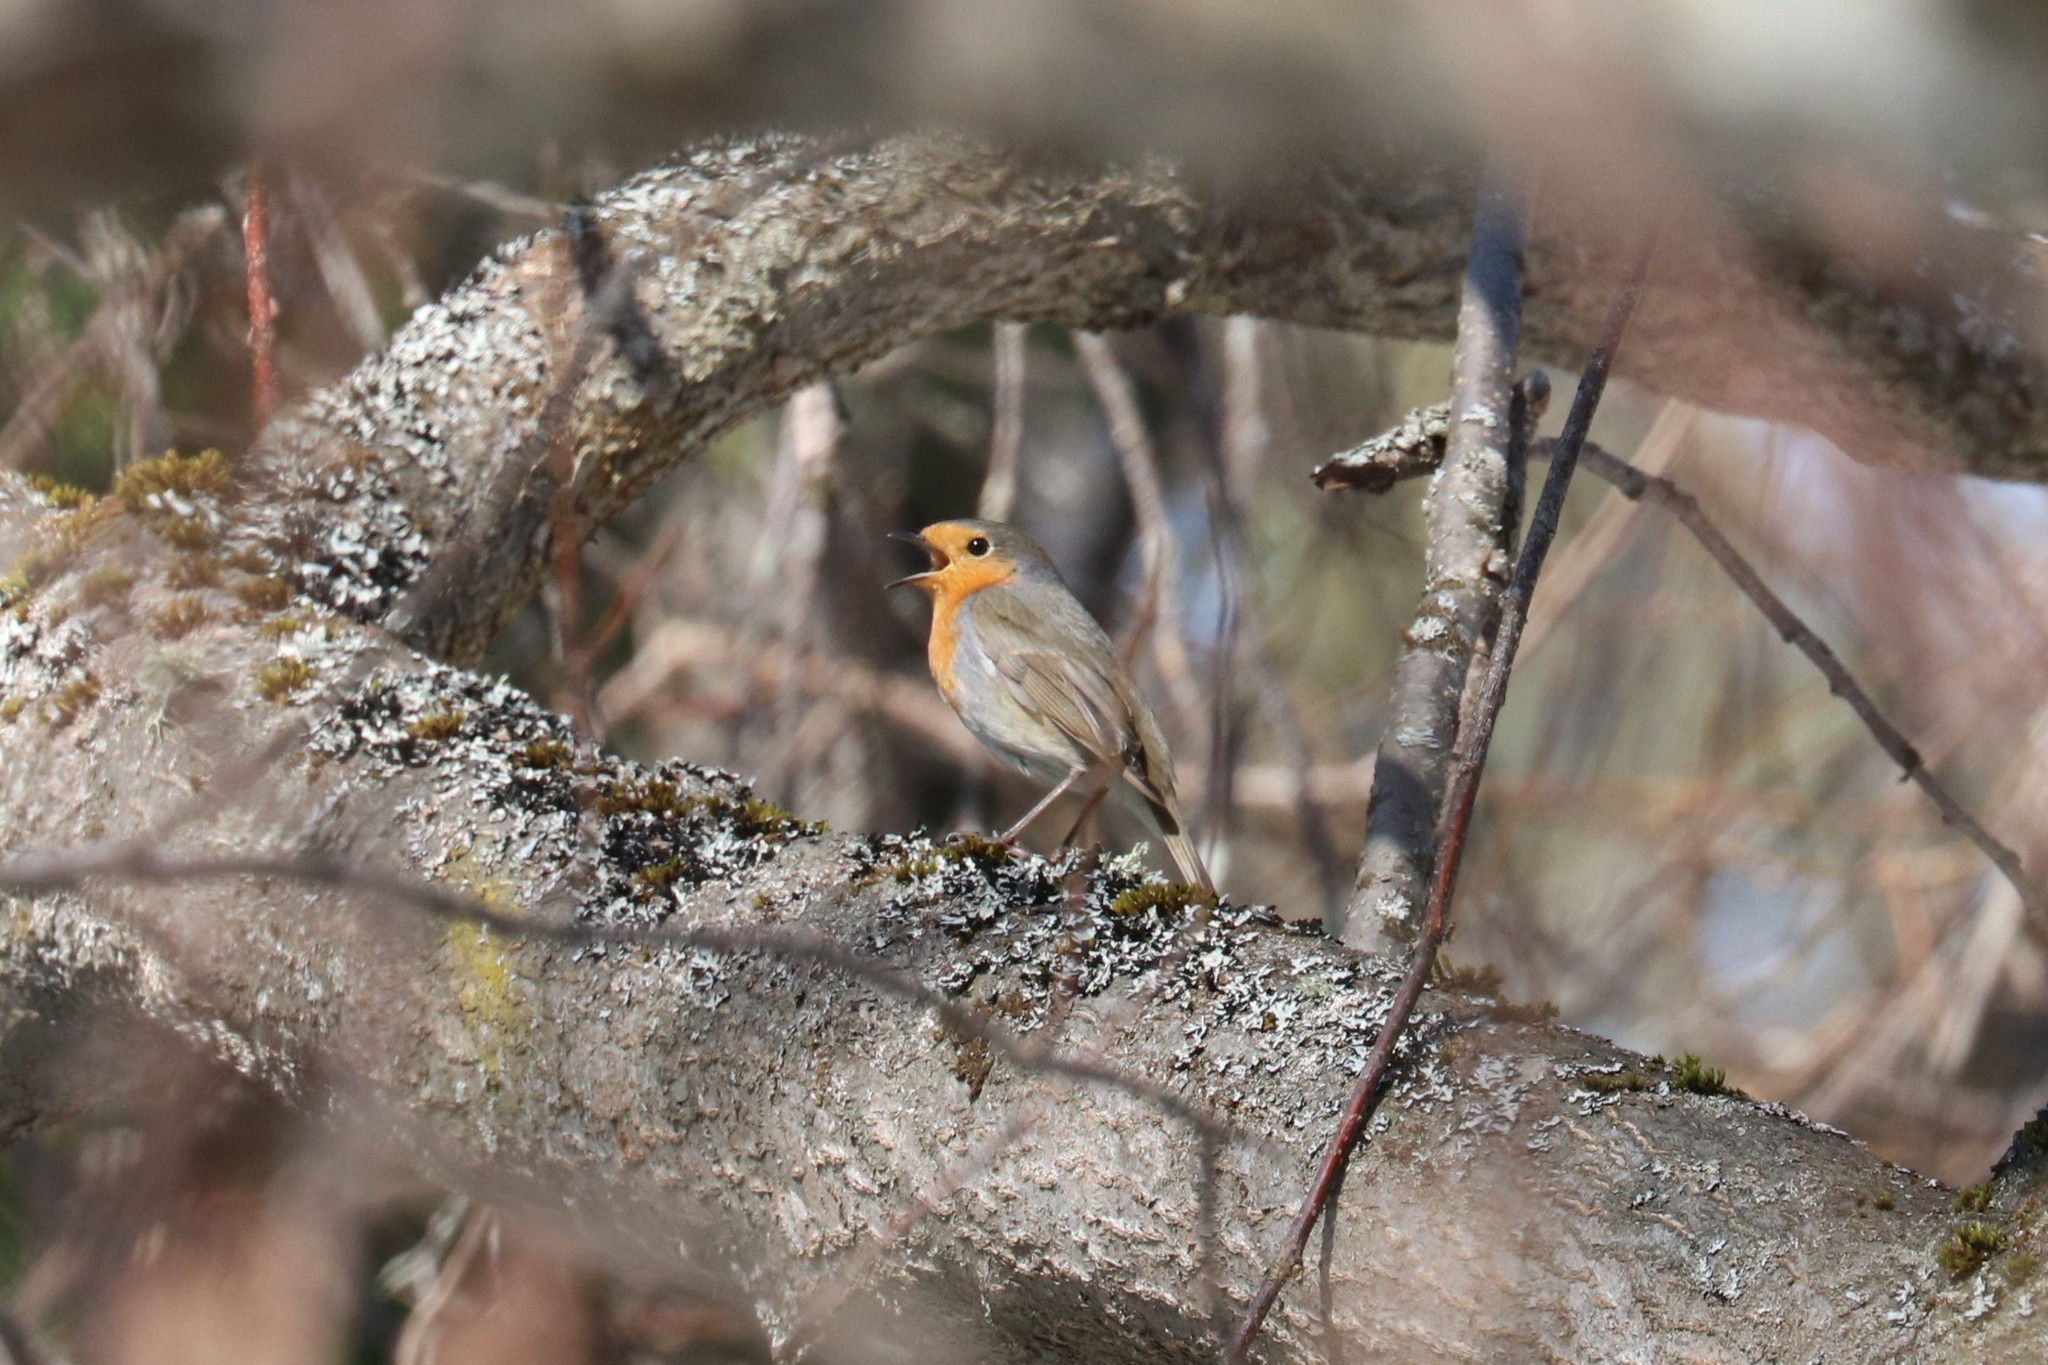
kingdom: Animalia
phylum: Chordata
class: Aves
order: Passeriformes
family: Muscicapidae
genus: Erithacus
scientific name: Erithacus rubecula
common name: European robin
